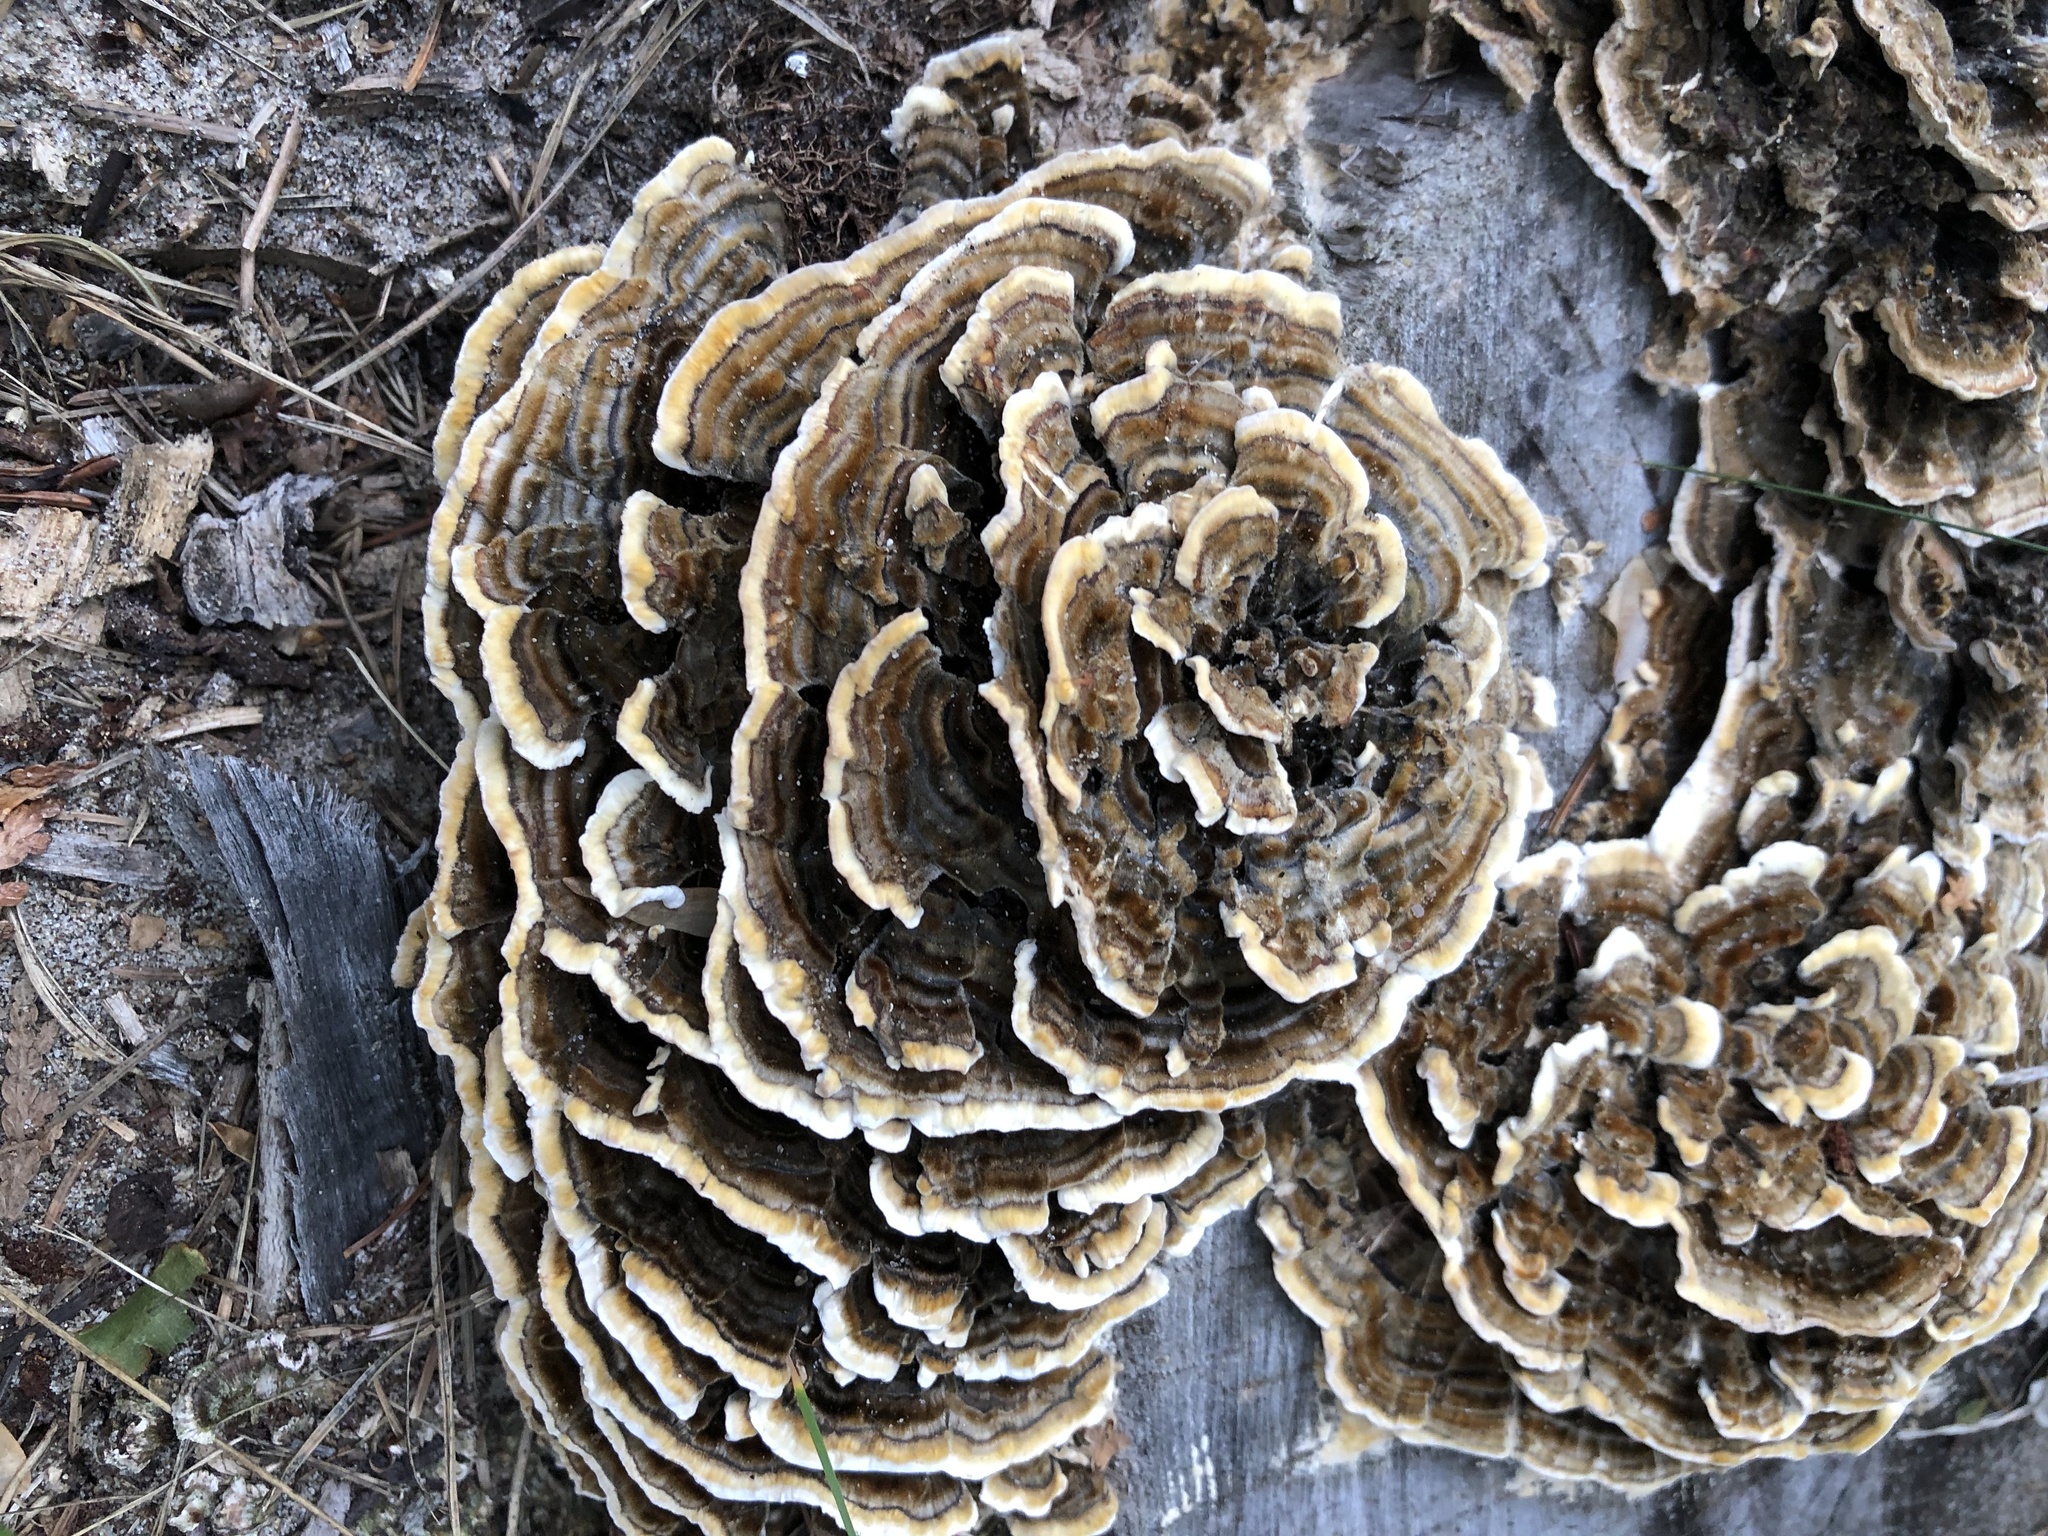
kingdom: Fungi
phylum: Basidiomycota
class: Agaricomycetes
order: Polyporales
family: Polyporaceae
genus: Trametes
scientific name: Trametes versicolor
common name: Turkeytail
